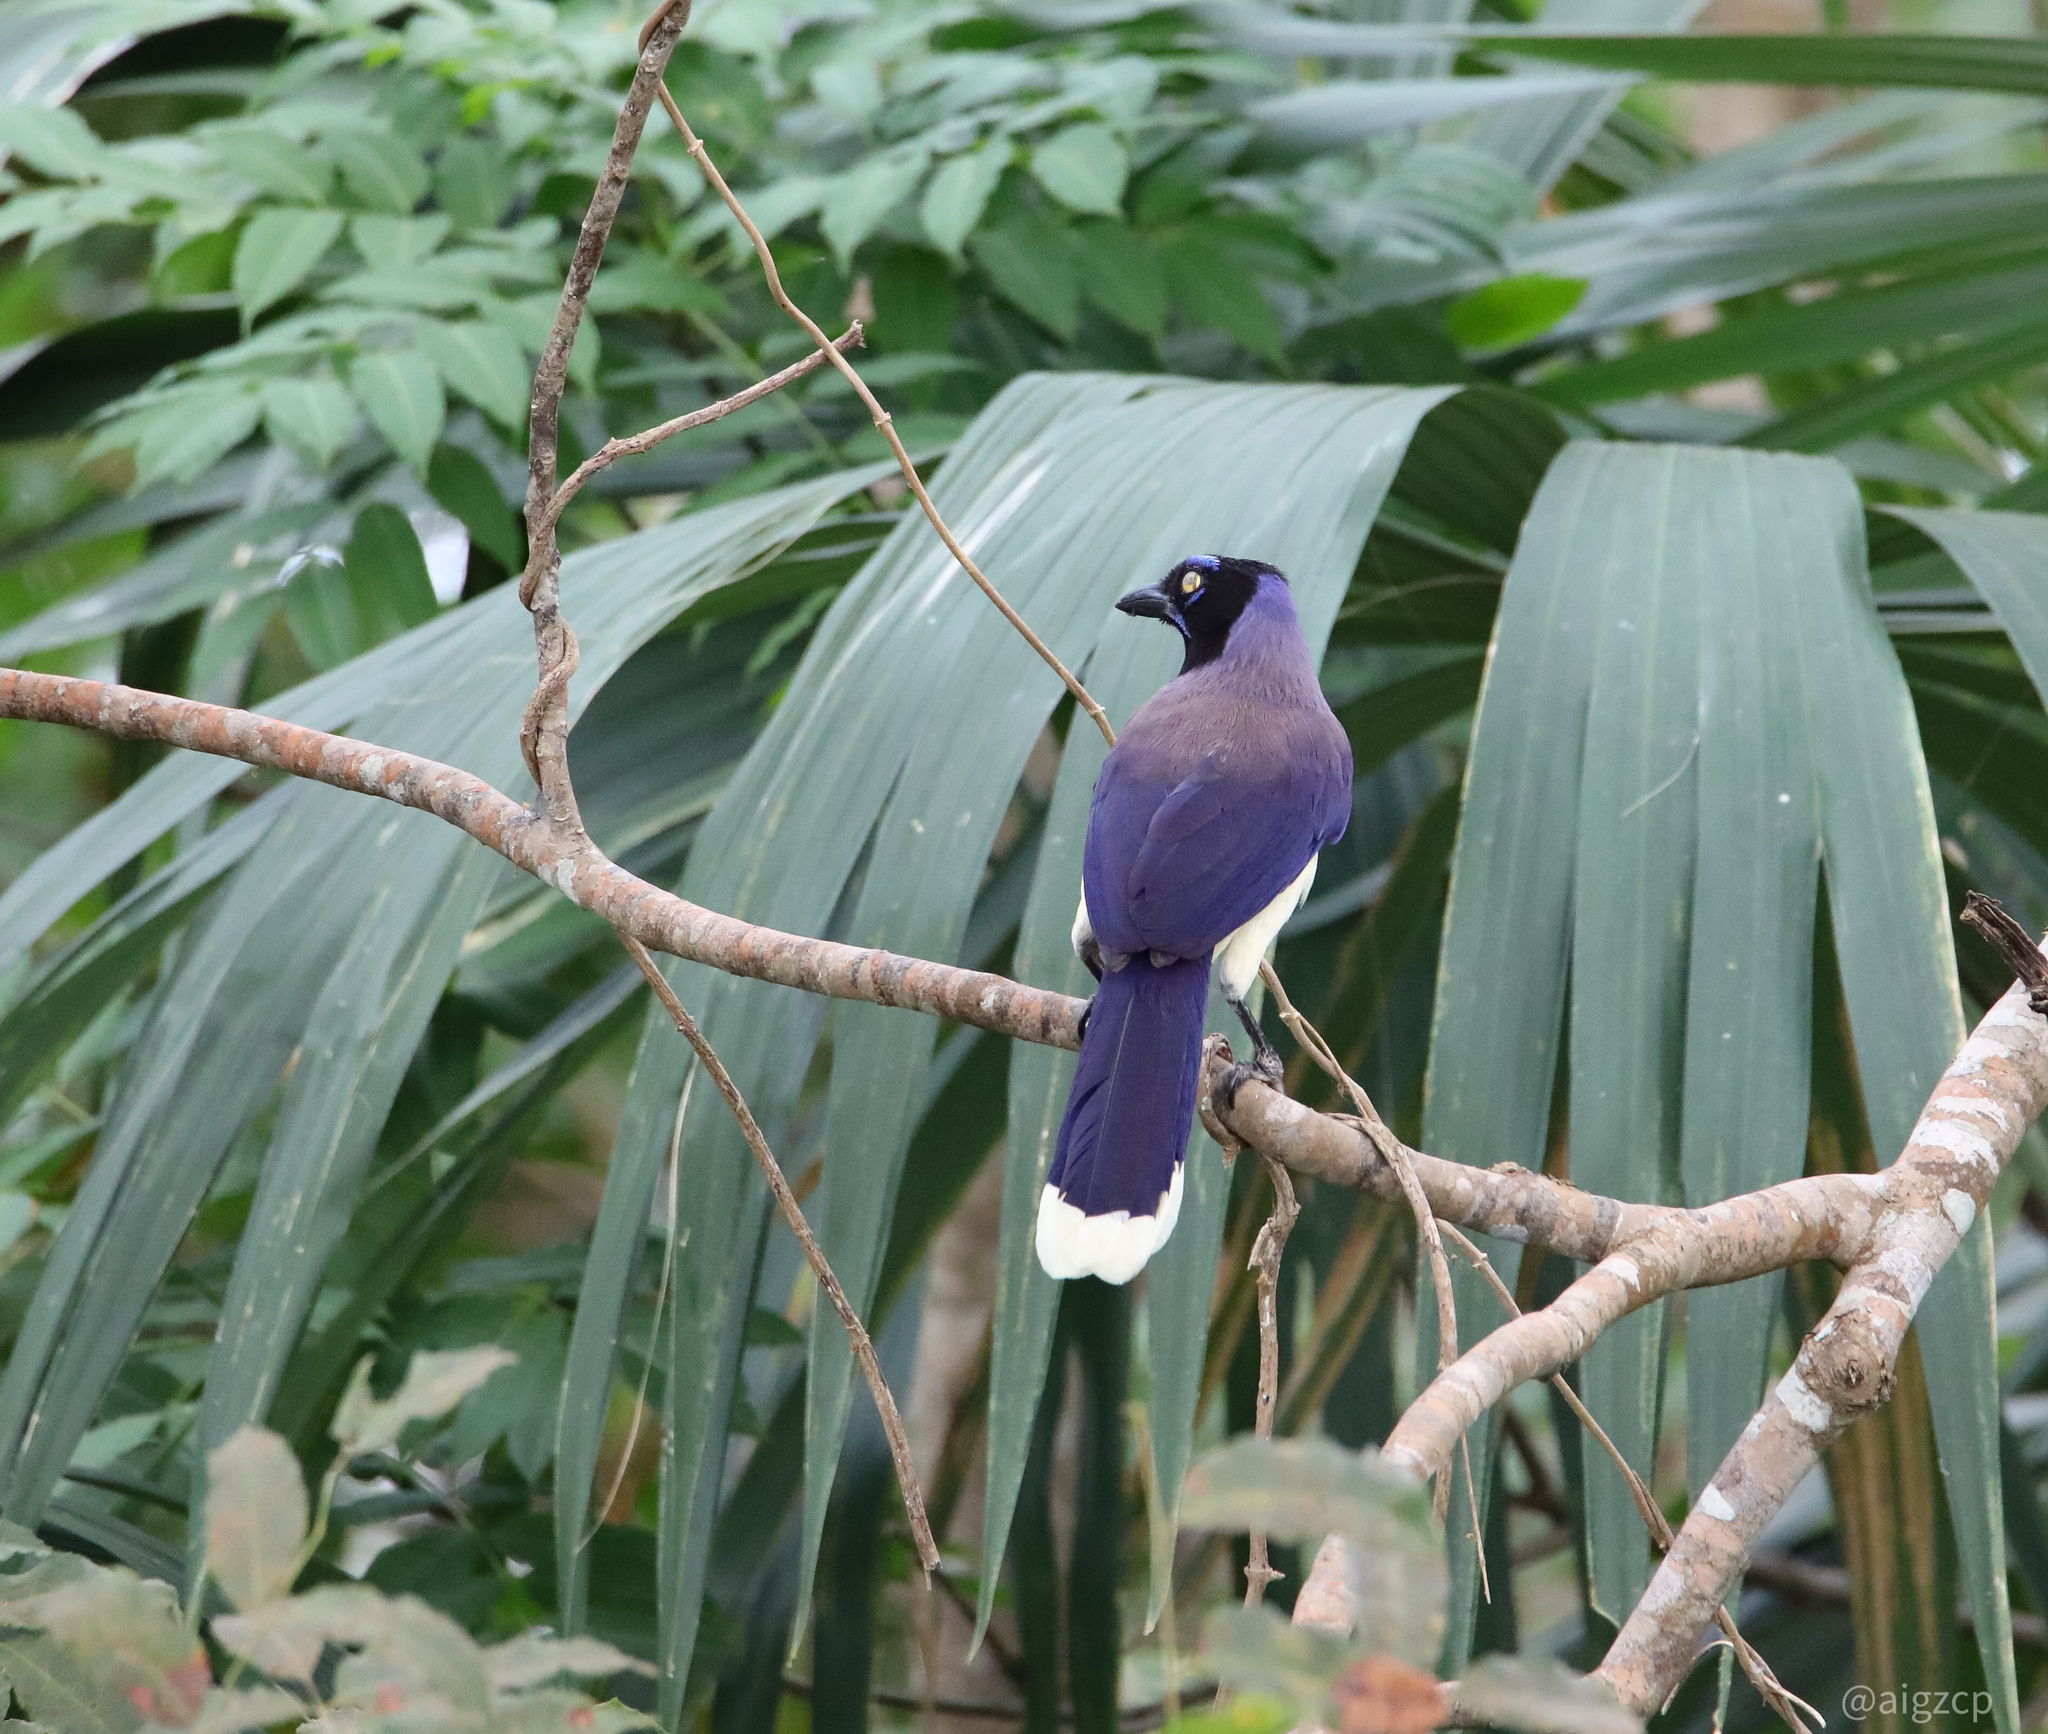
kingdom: Animalia
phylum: Chordata
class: Aves
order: Passeriformes
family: Corvidae
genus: Cyanocorax
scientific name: Cyanocorax affinis
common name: Black-chested jay
